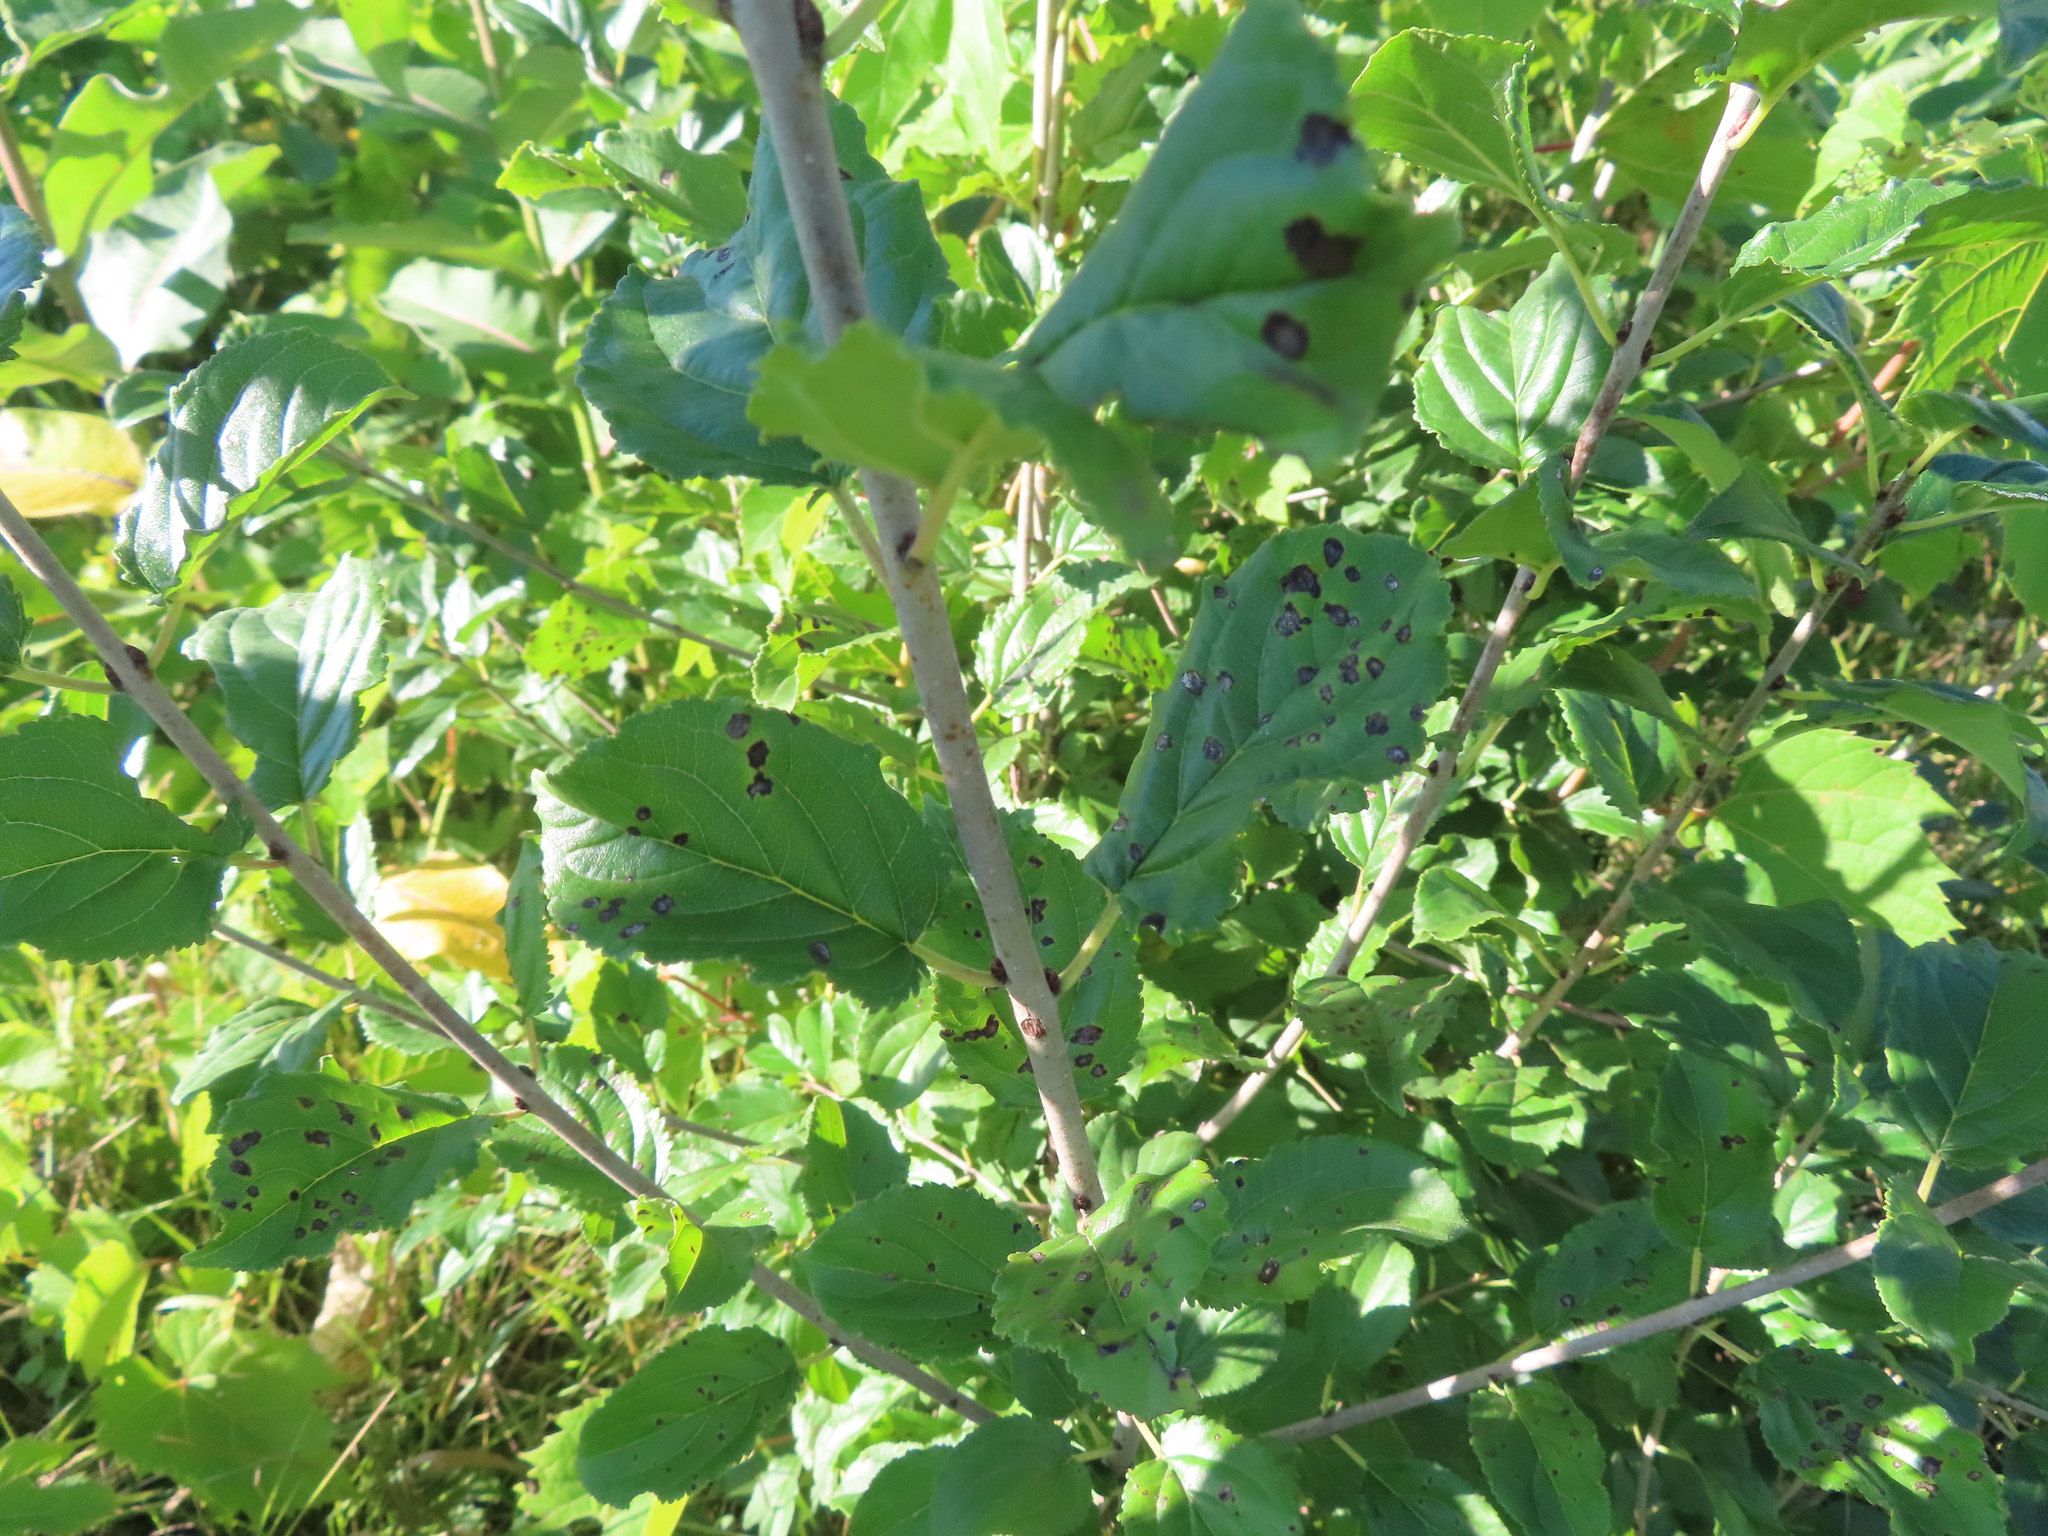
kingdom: Plantae
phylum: Tracheophyta
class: Magnoliopsida
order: Rosales
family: Rhamnaceae
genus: Rhamnus
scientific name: Rhamnus cathartica
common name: Common buckthorn
